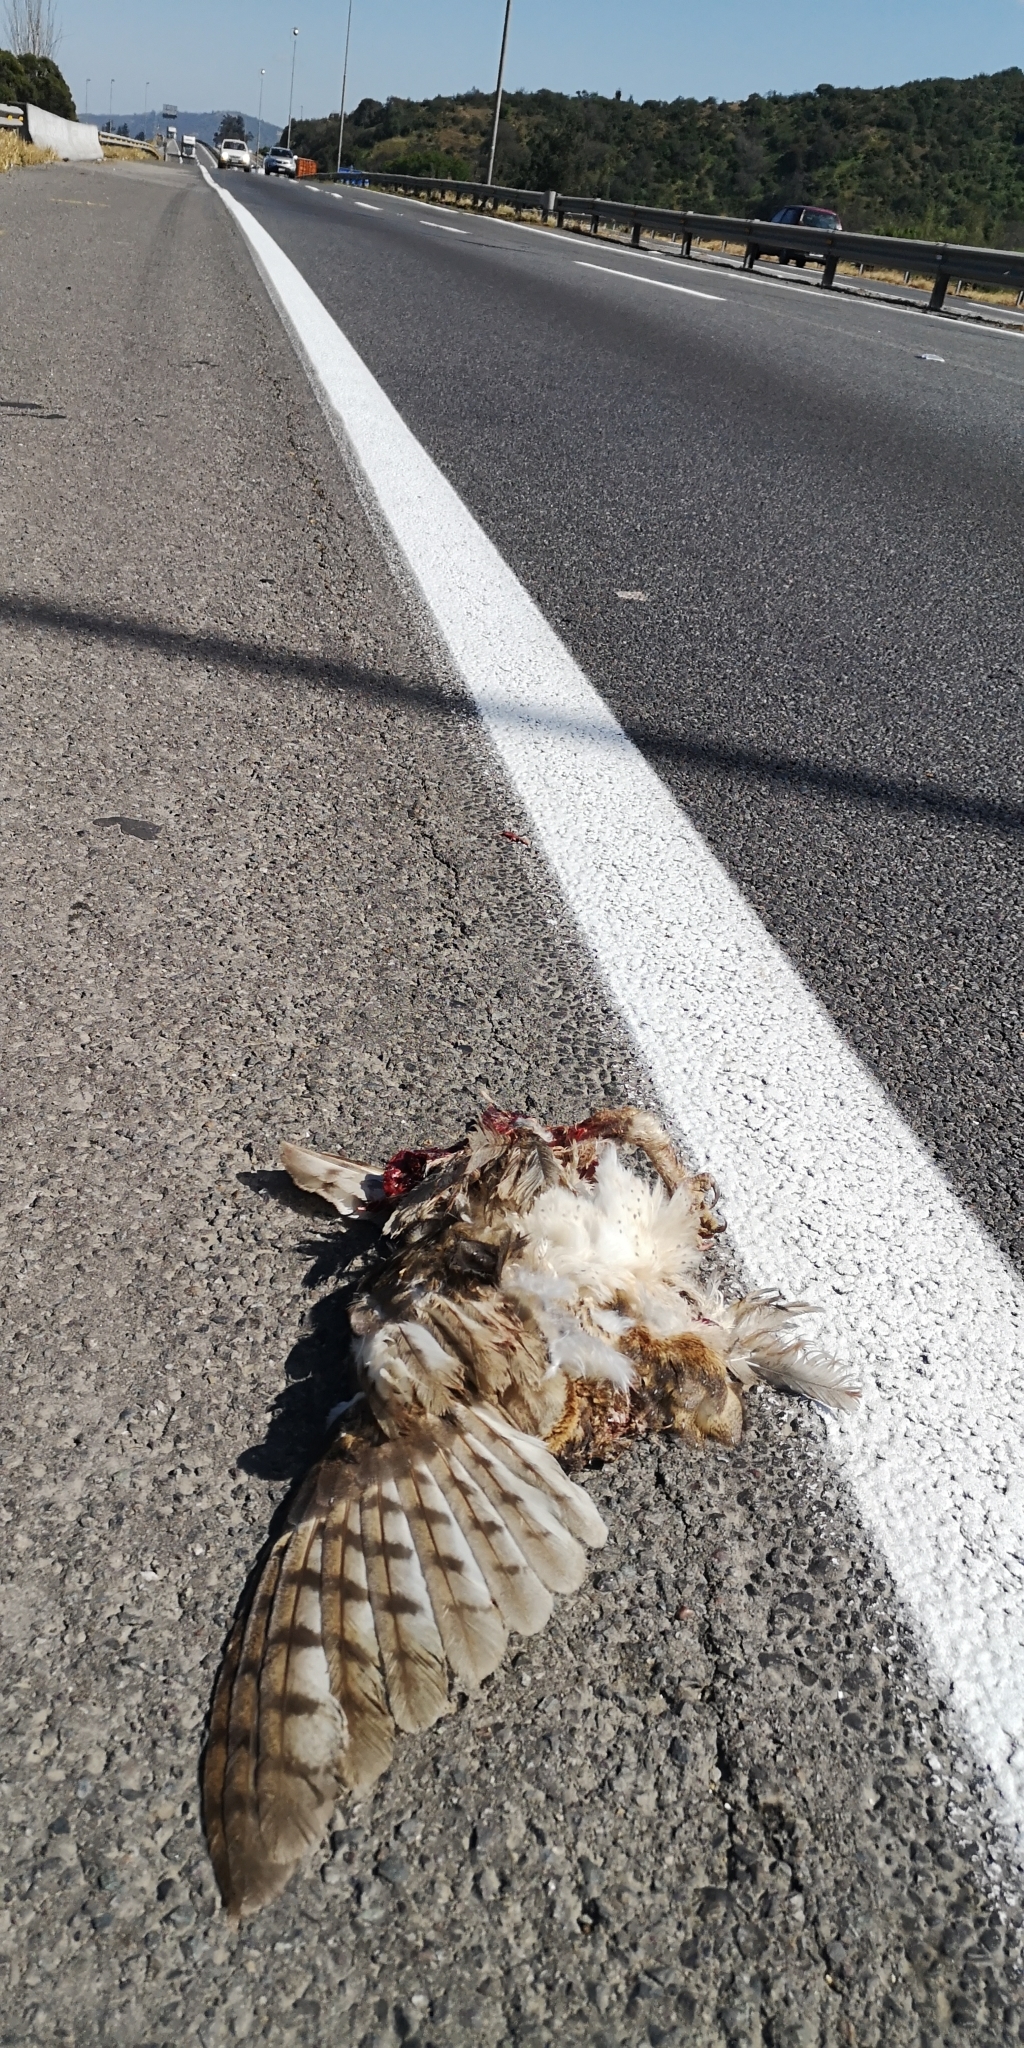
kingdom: Animalia
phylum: Chordata
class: Aves
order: Strigiformes
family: Tytonidae
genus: Tyto
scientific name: Tyto alba
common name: Barn owl
